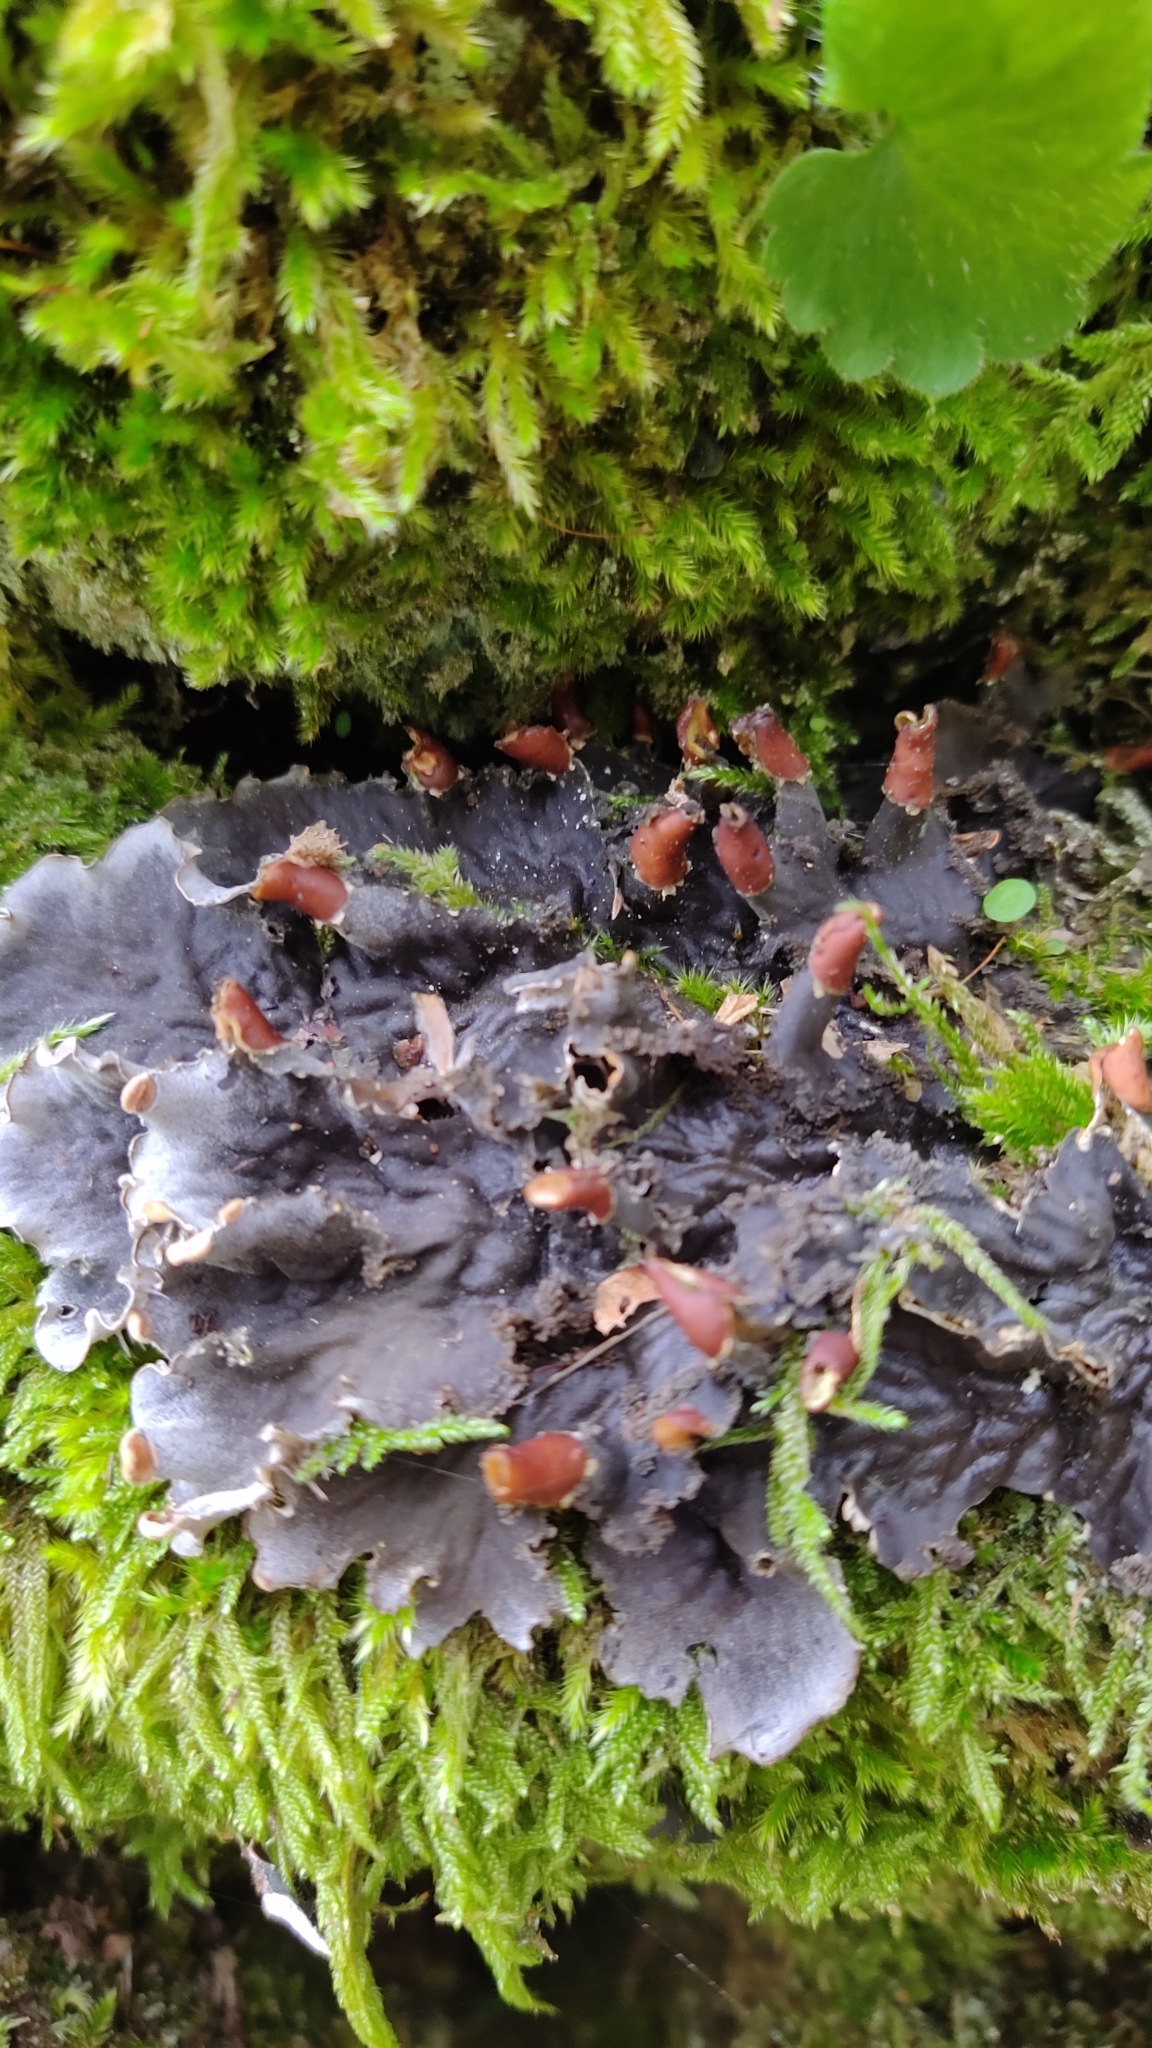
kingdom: Fungi
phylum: Ascomycota
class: Lecanoromycetes
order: Peltigerales
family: Peltigeraceae
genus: Peltigera
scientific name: Peltigera praetextata
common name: Scaly dog-lichen
